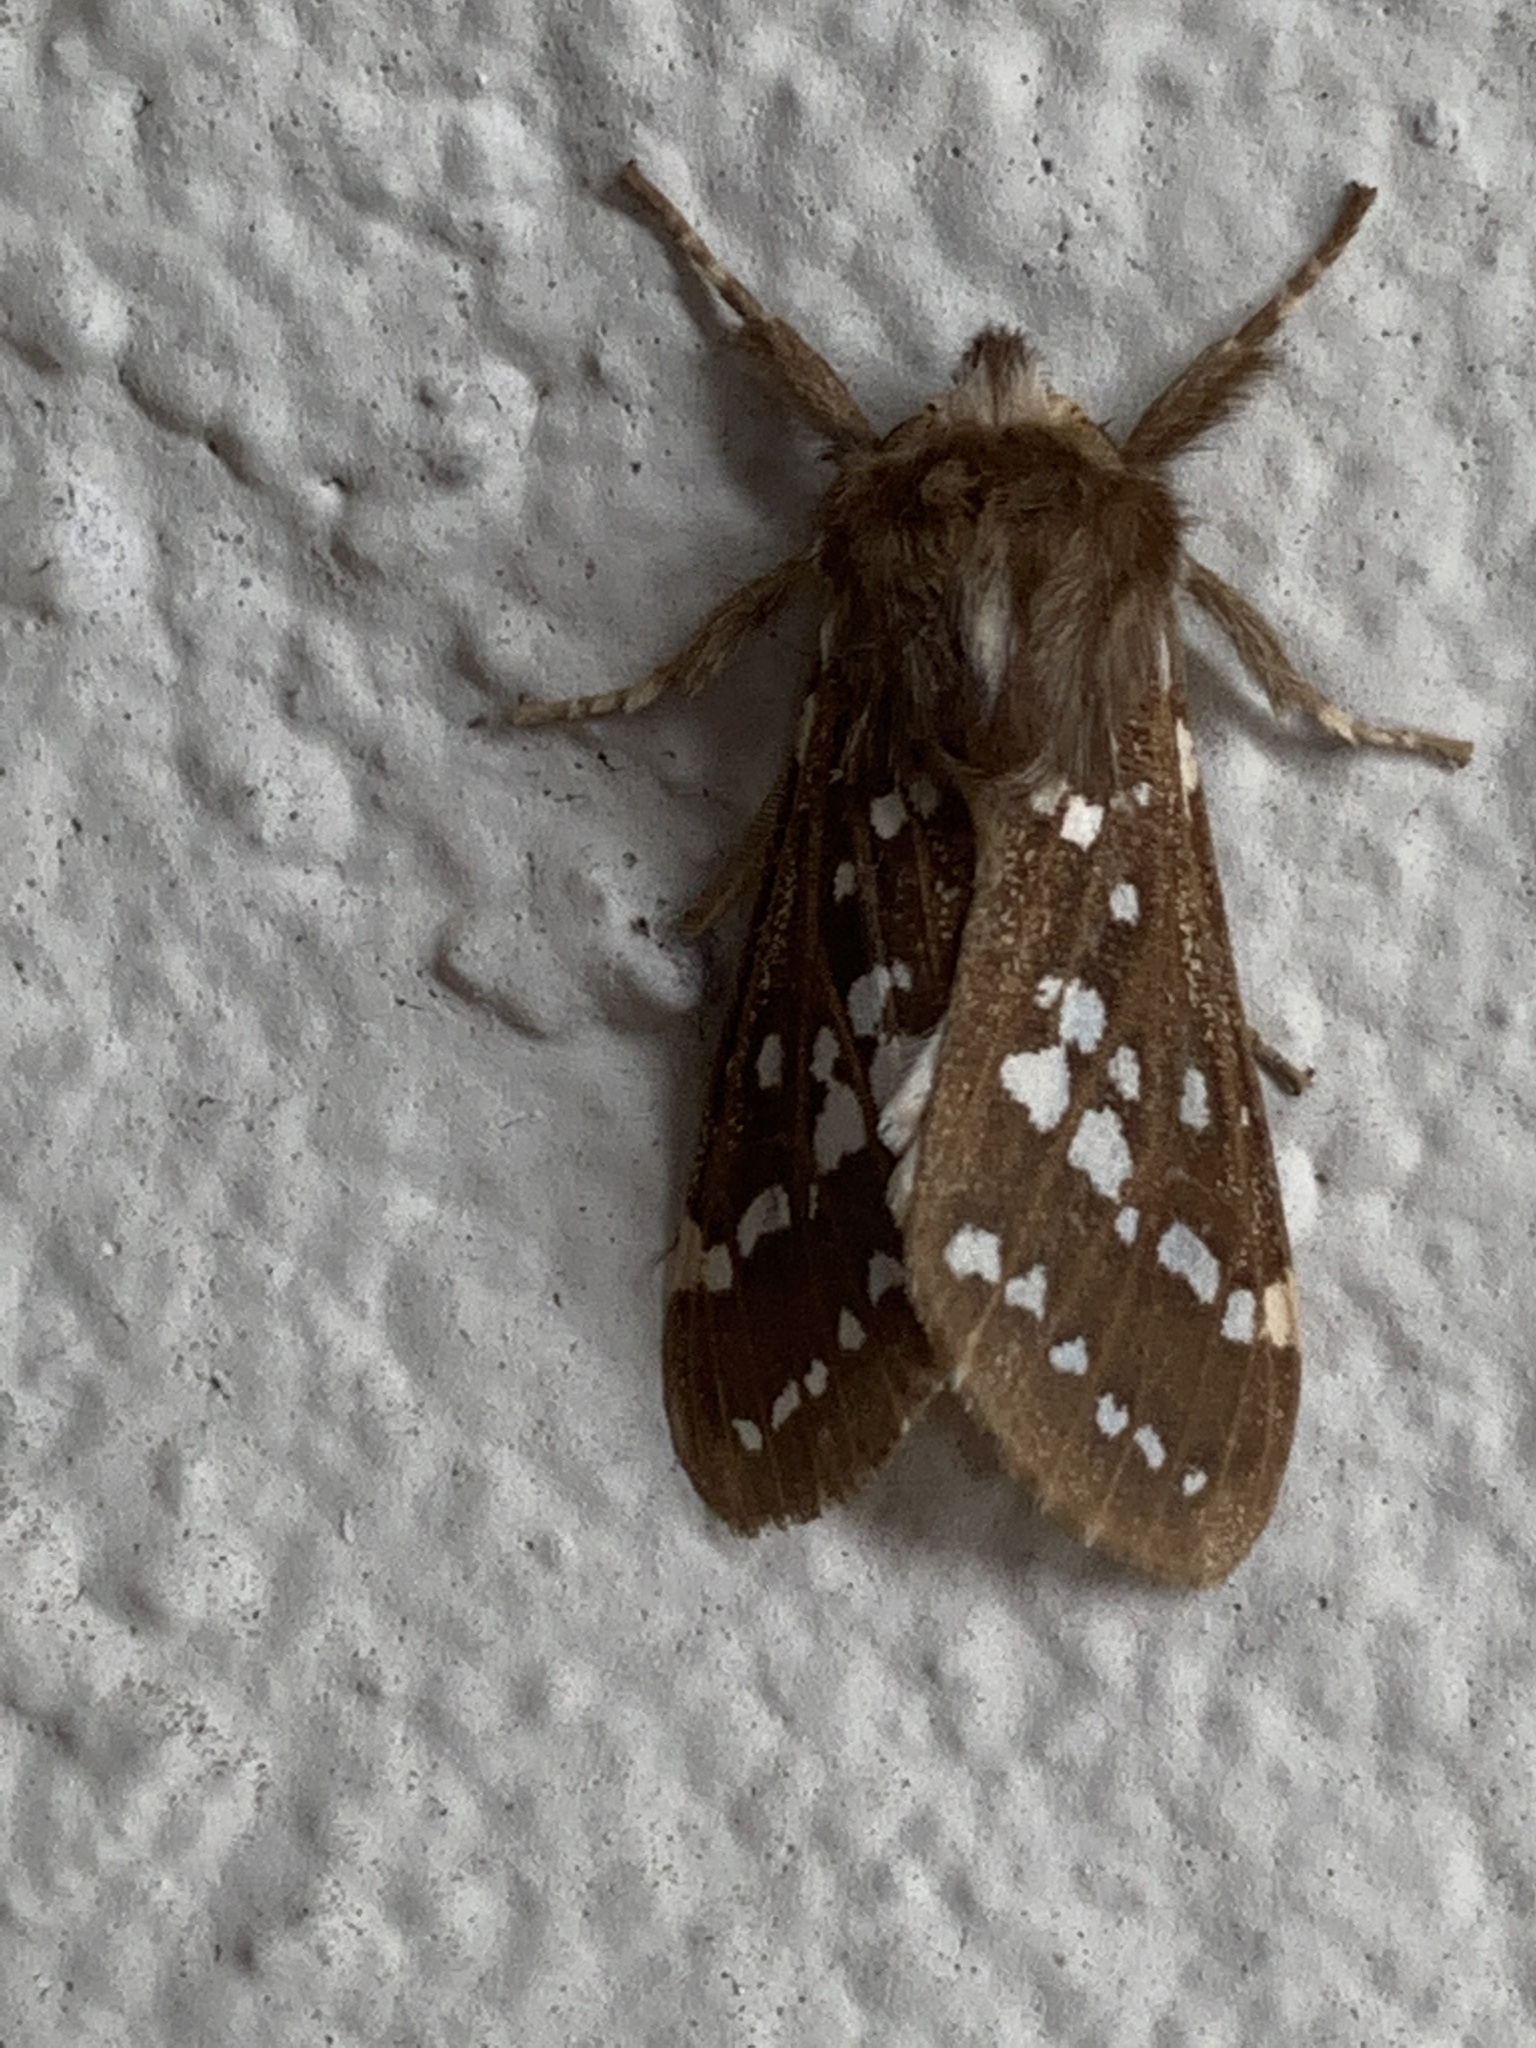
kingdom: Animalia
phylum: Arthropoda
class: Insecta
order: Lepidoptera
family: Erebidae
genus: Lophocampa
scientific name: Lophocampa sobrina
